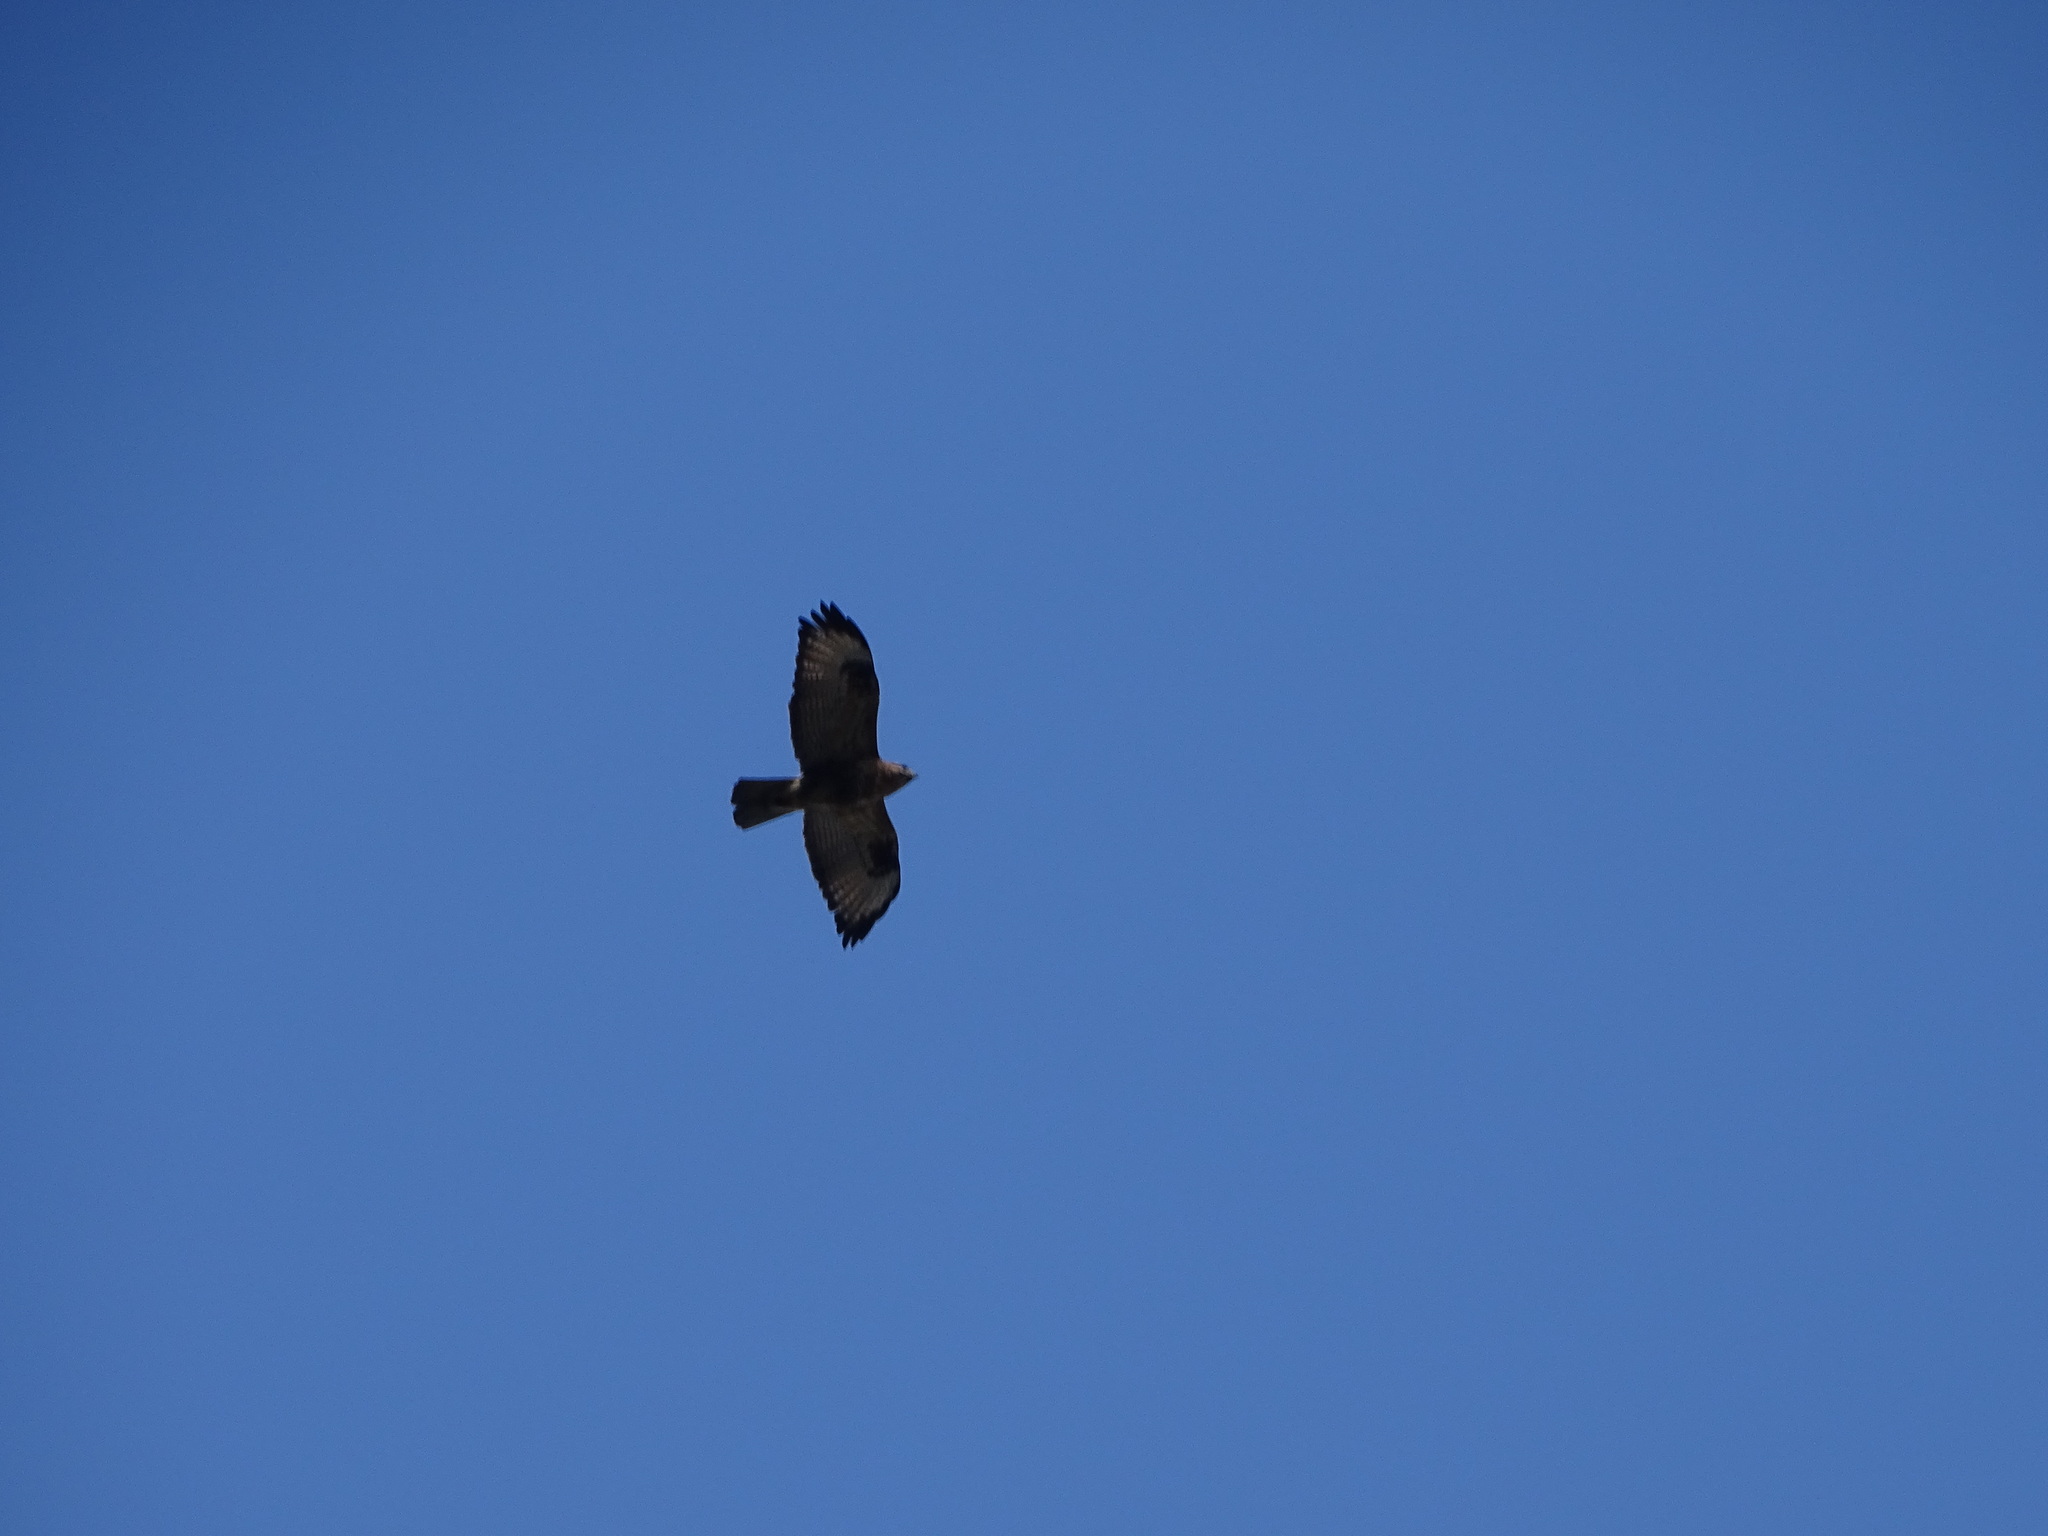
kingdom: Animalia
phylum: Chordata
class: Aves
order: Accipitriformes
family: Accipitridae
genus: Buteo
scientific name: Buteo japonicus
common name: Eastern buzzard
